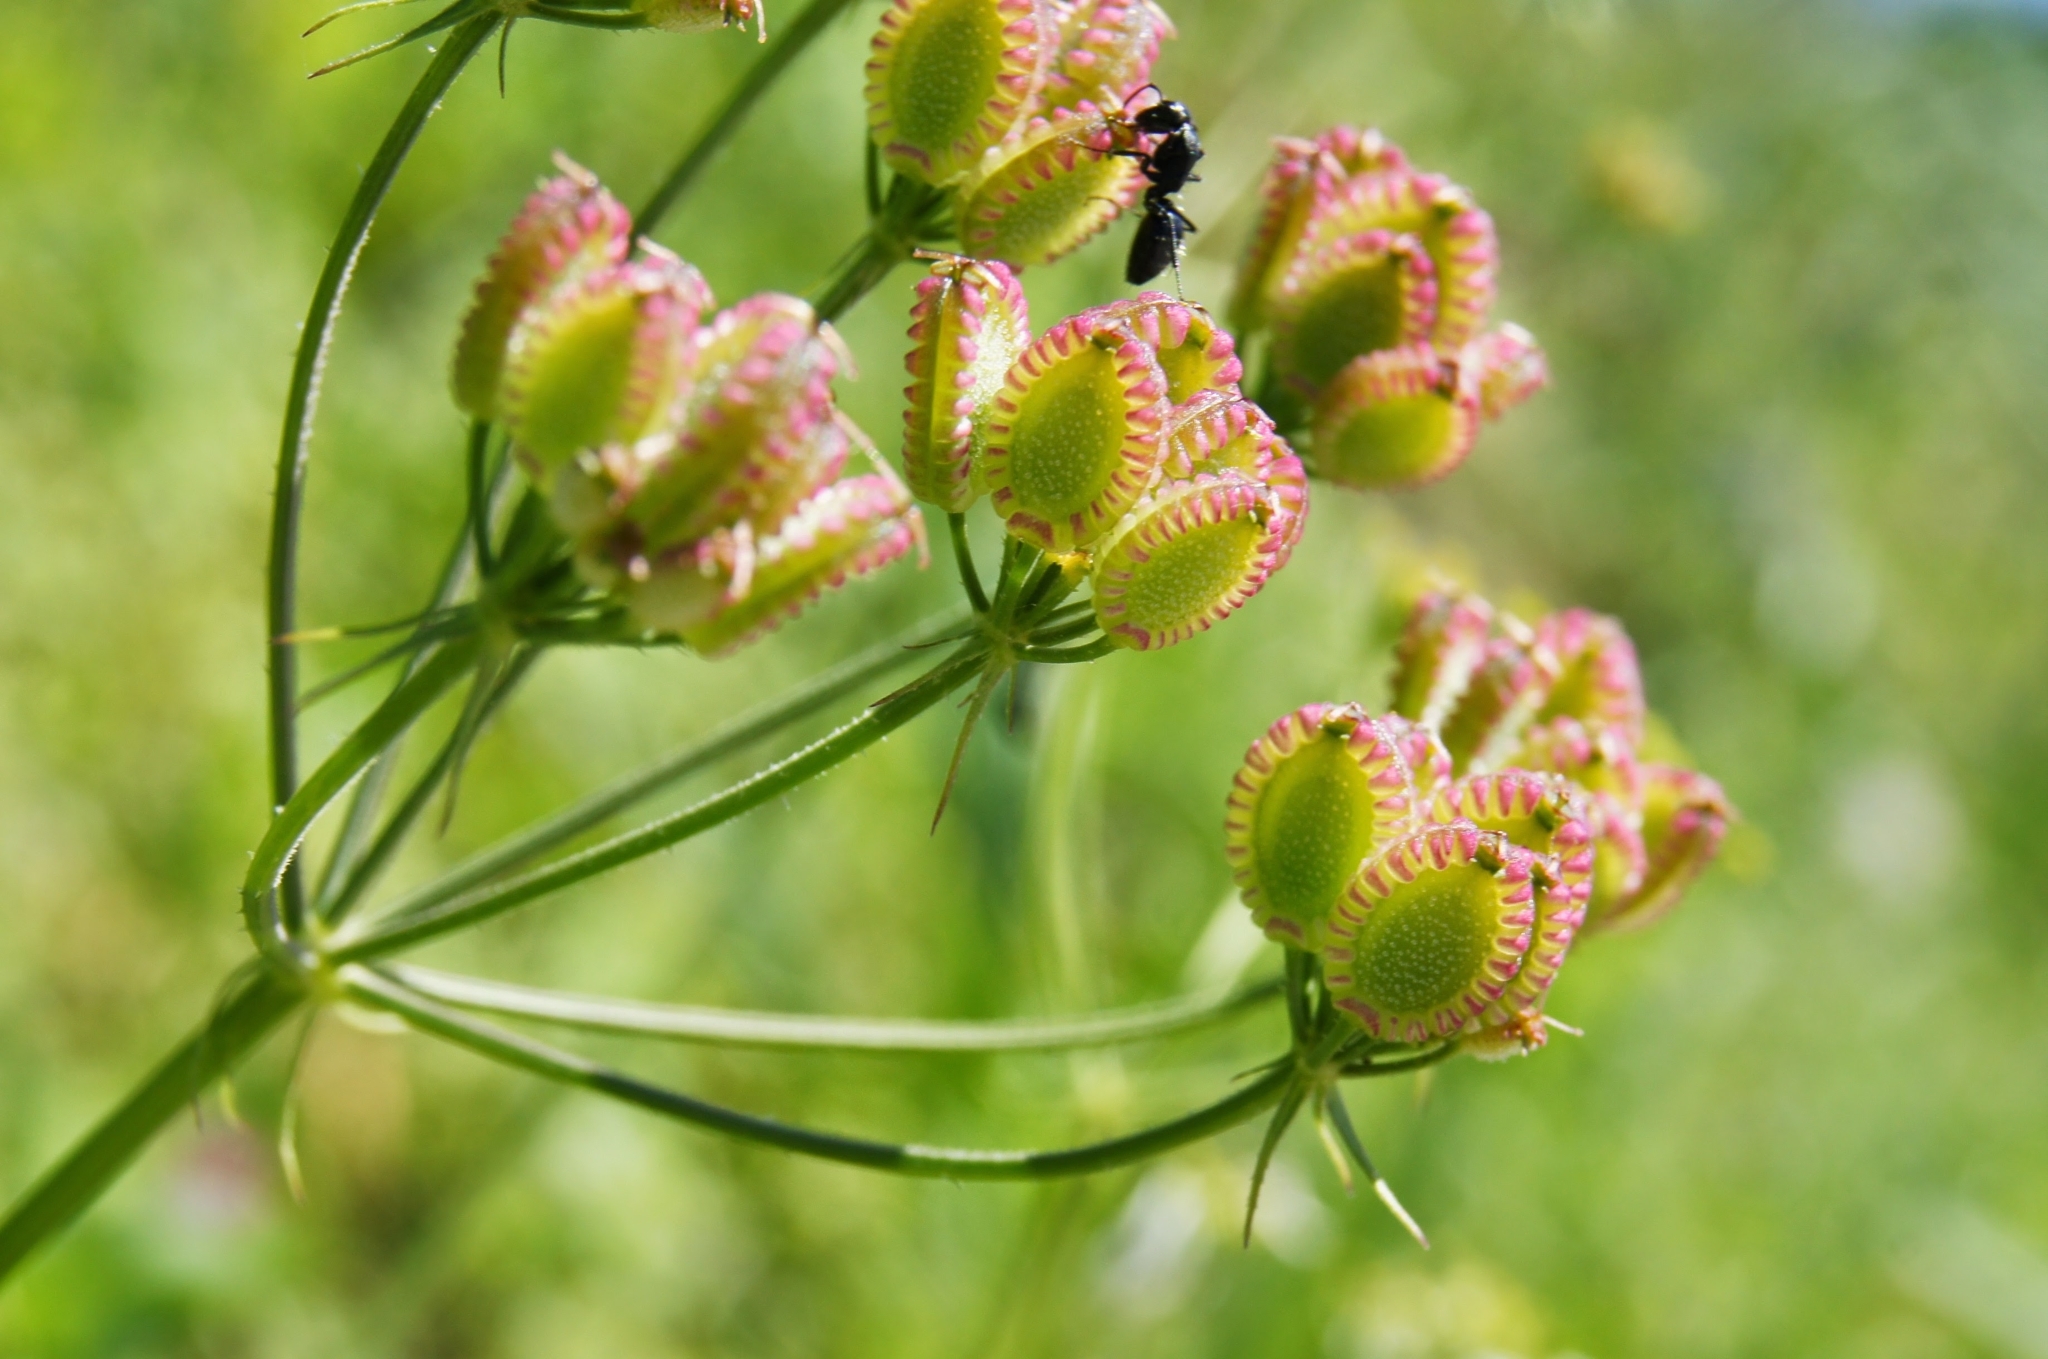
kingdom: Plantae
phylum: Tracheophyta
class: Magnoliopsida
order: Apiales
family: Apiaceae
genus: Tordylium
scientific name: Tordylium apulum
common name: Mediterranean hartwort
